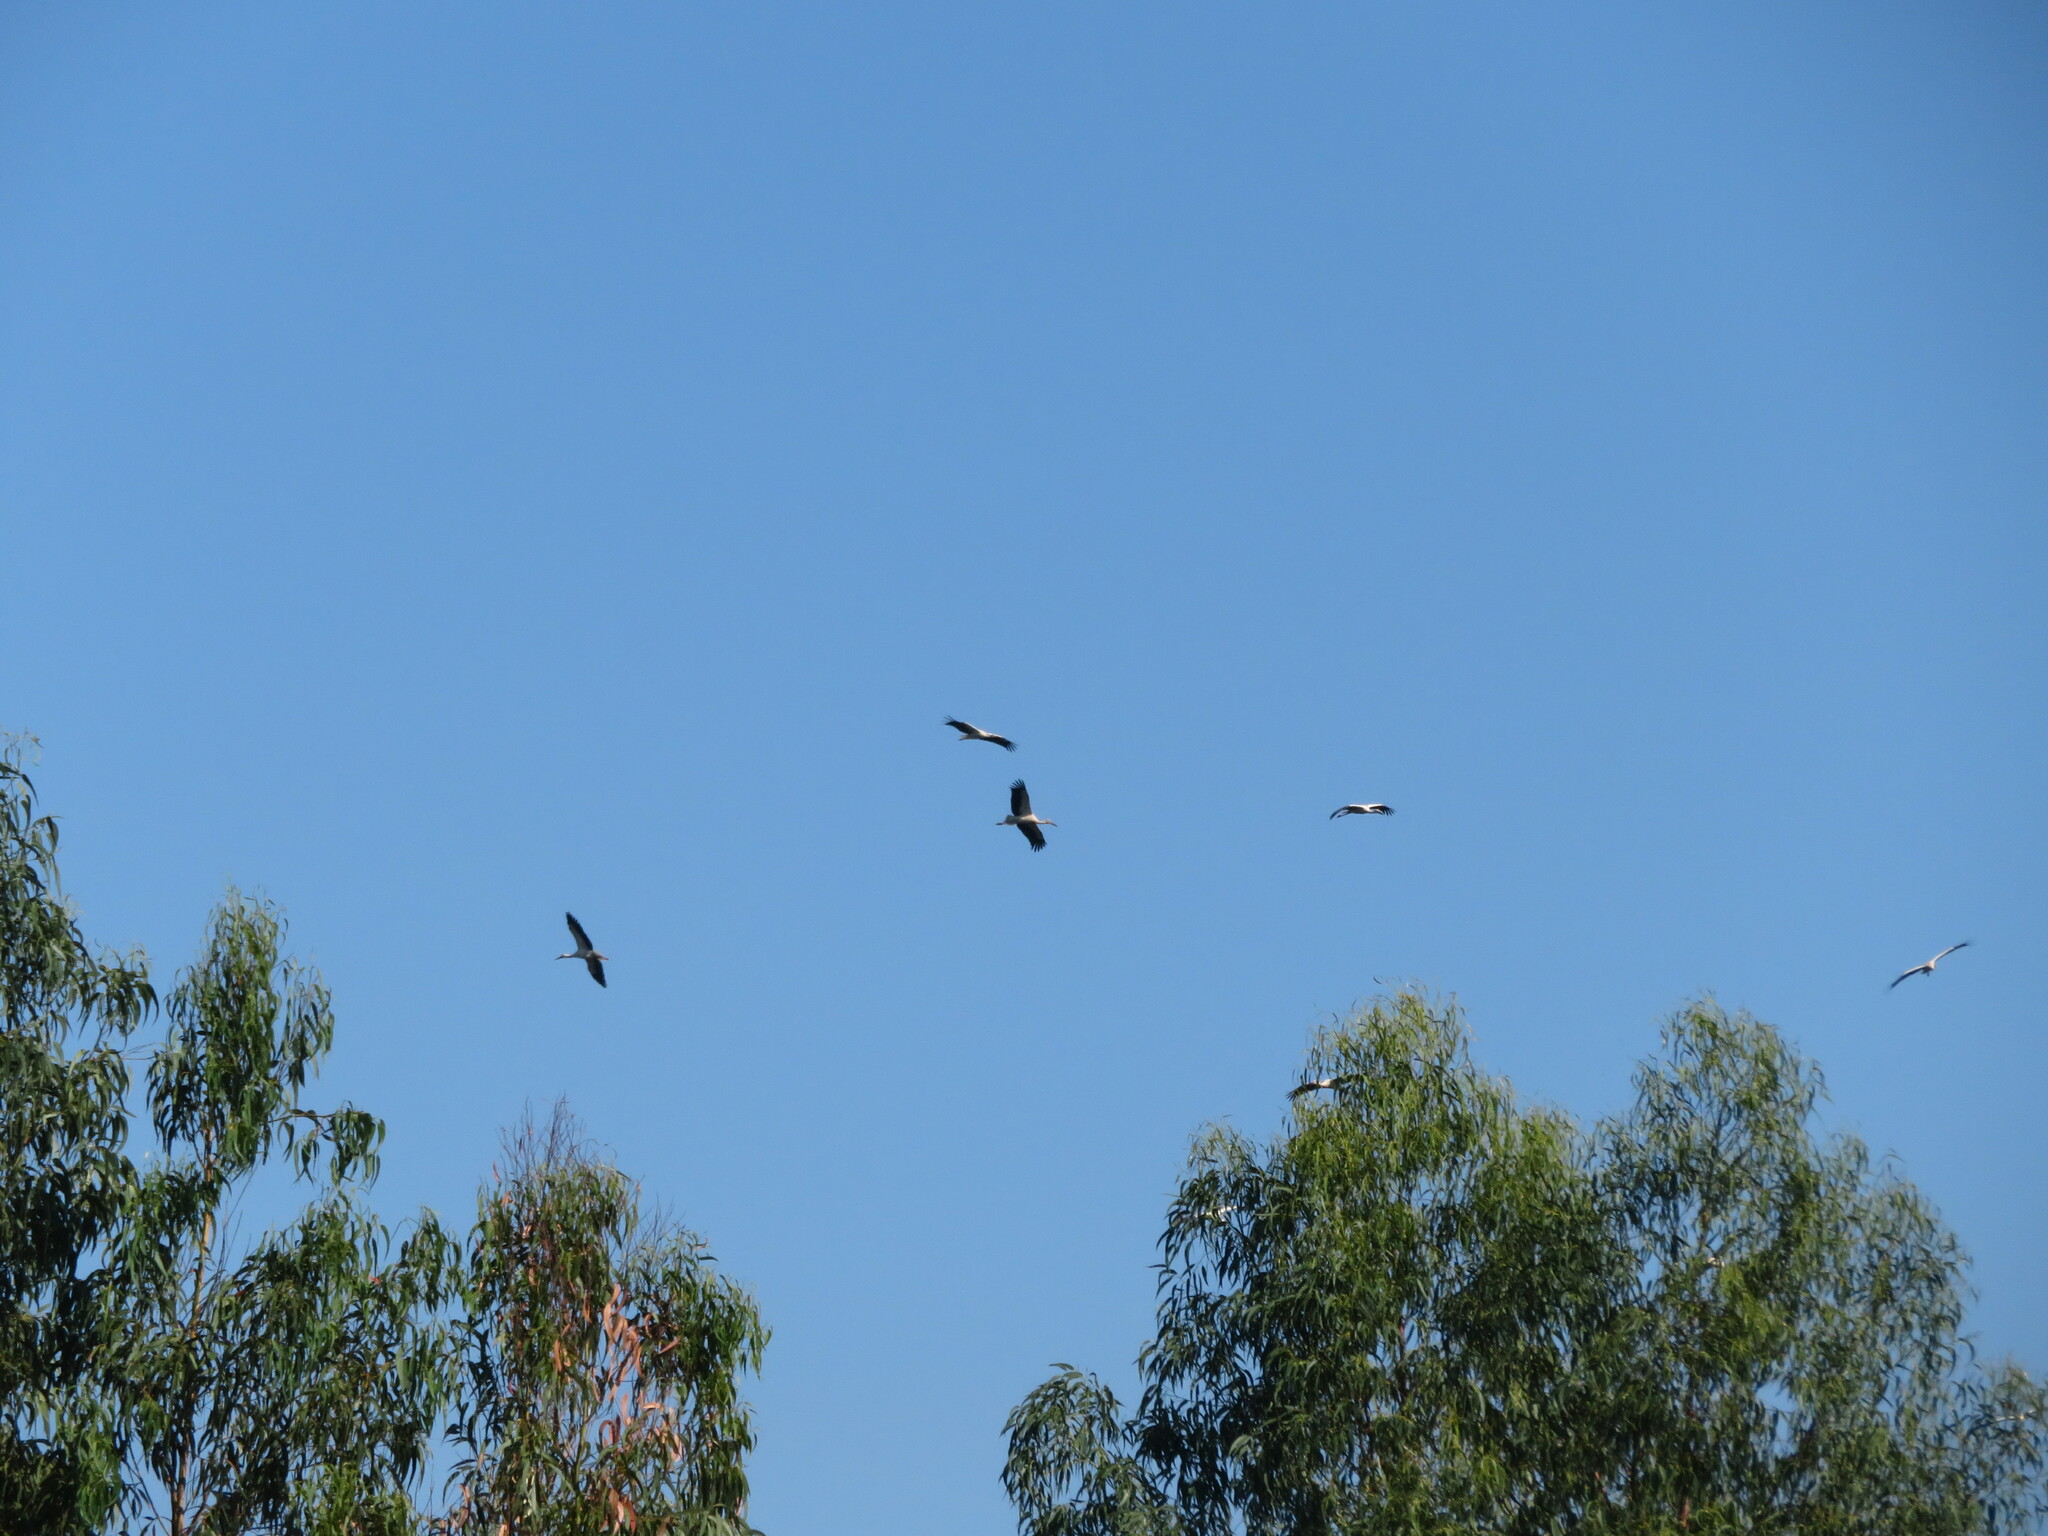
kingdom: Animalia
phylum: Chordata
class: Aves
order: Ciconiiformes
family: Ciconiidae
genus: Ciconia
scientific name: Ciconia ciconia
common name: White stork
